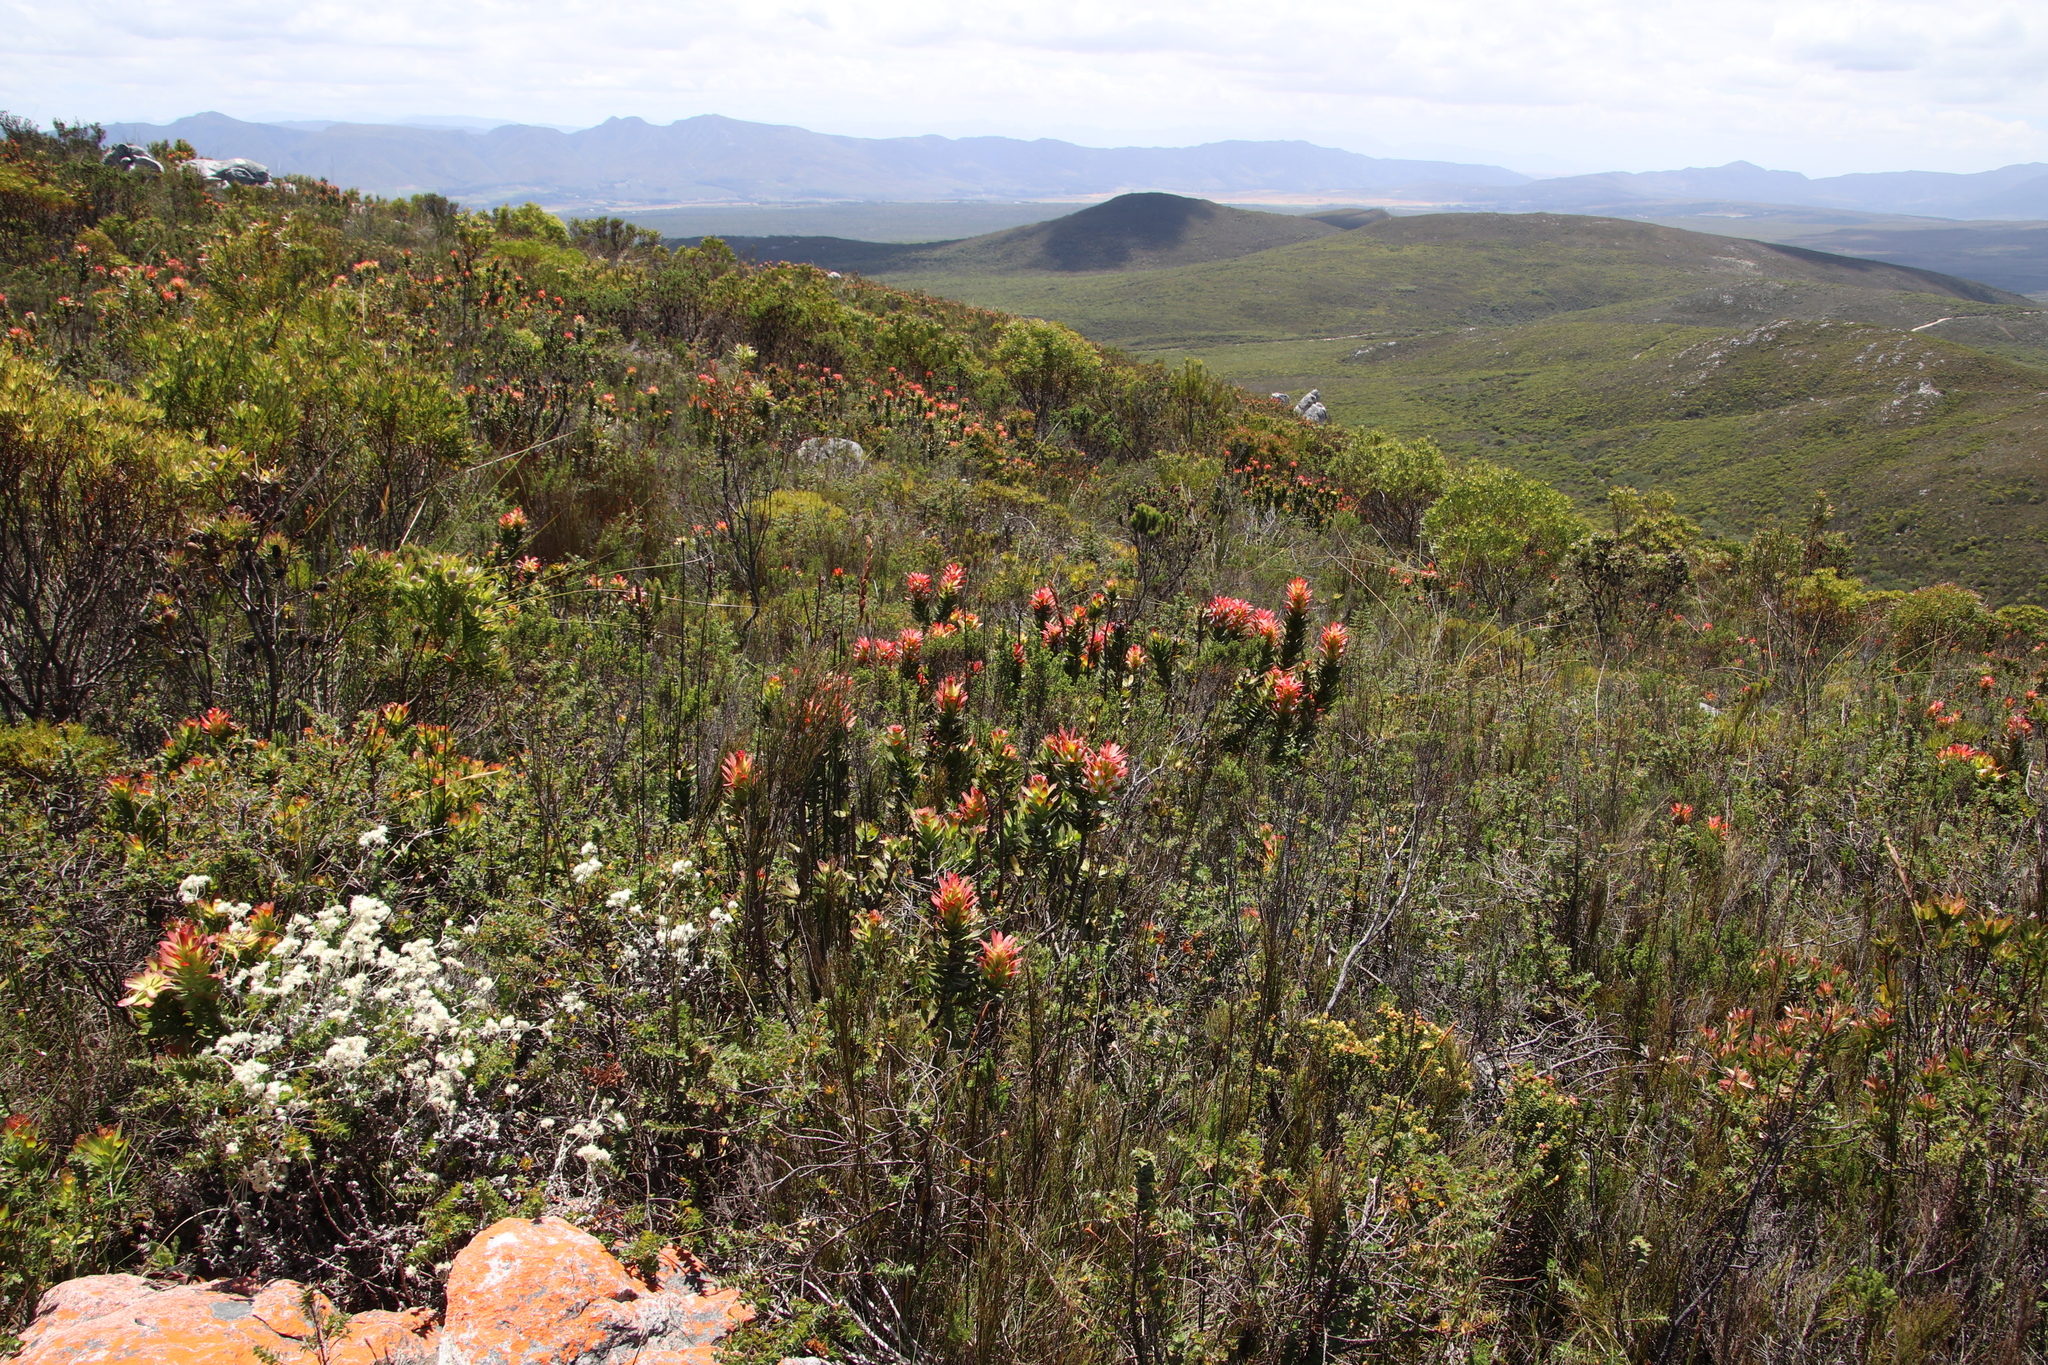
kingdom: Plantae
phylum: Tracheophyta
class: Magnoliopsida
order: Proteales
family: Proteaceae
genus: Mimetes
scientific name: Mimetes cucullatus
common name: Common pagoda
